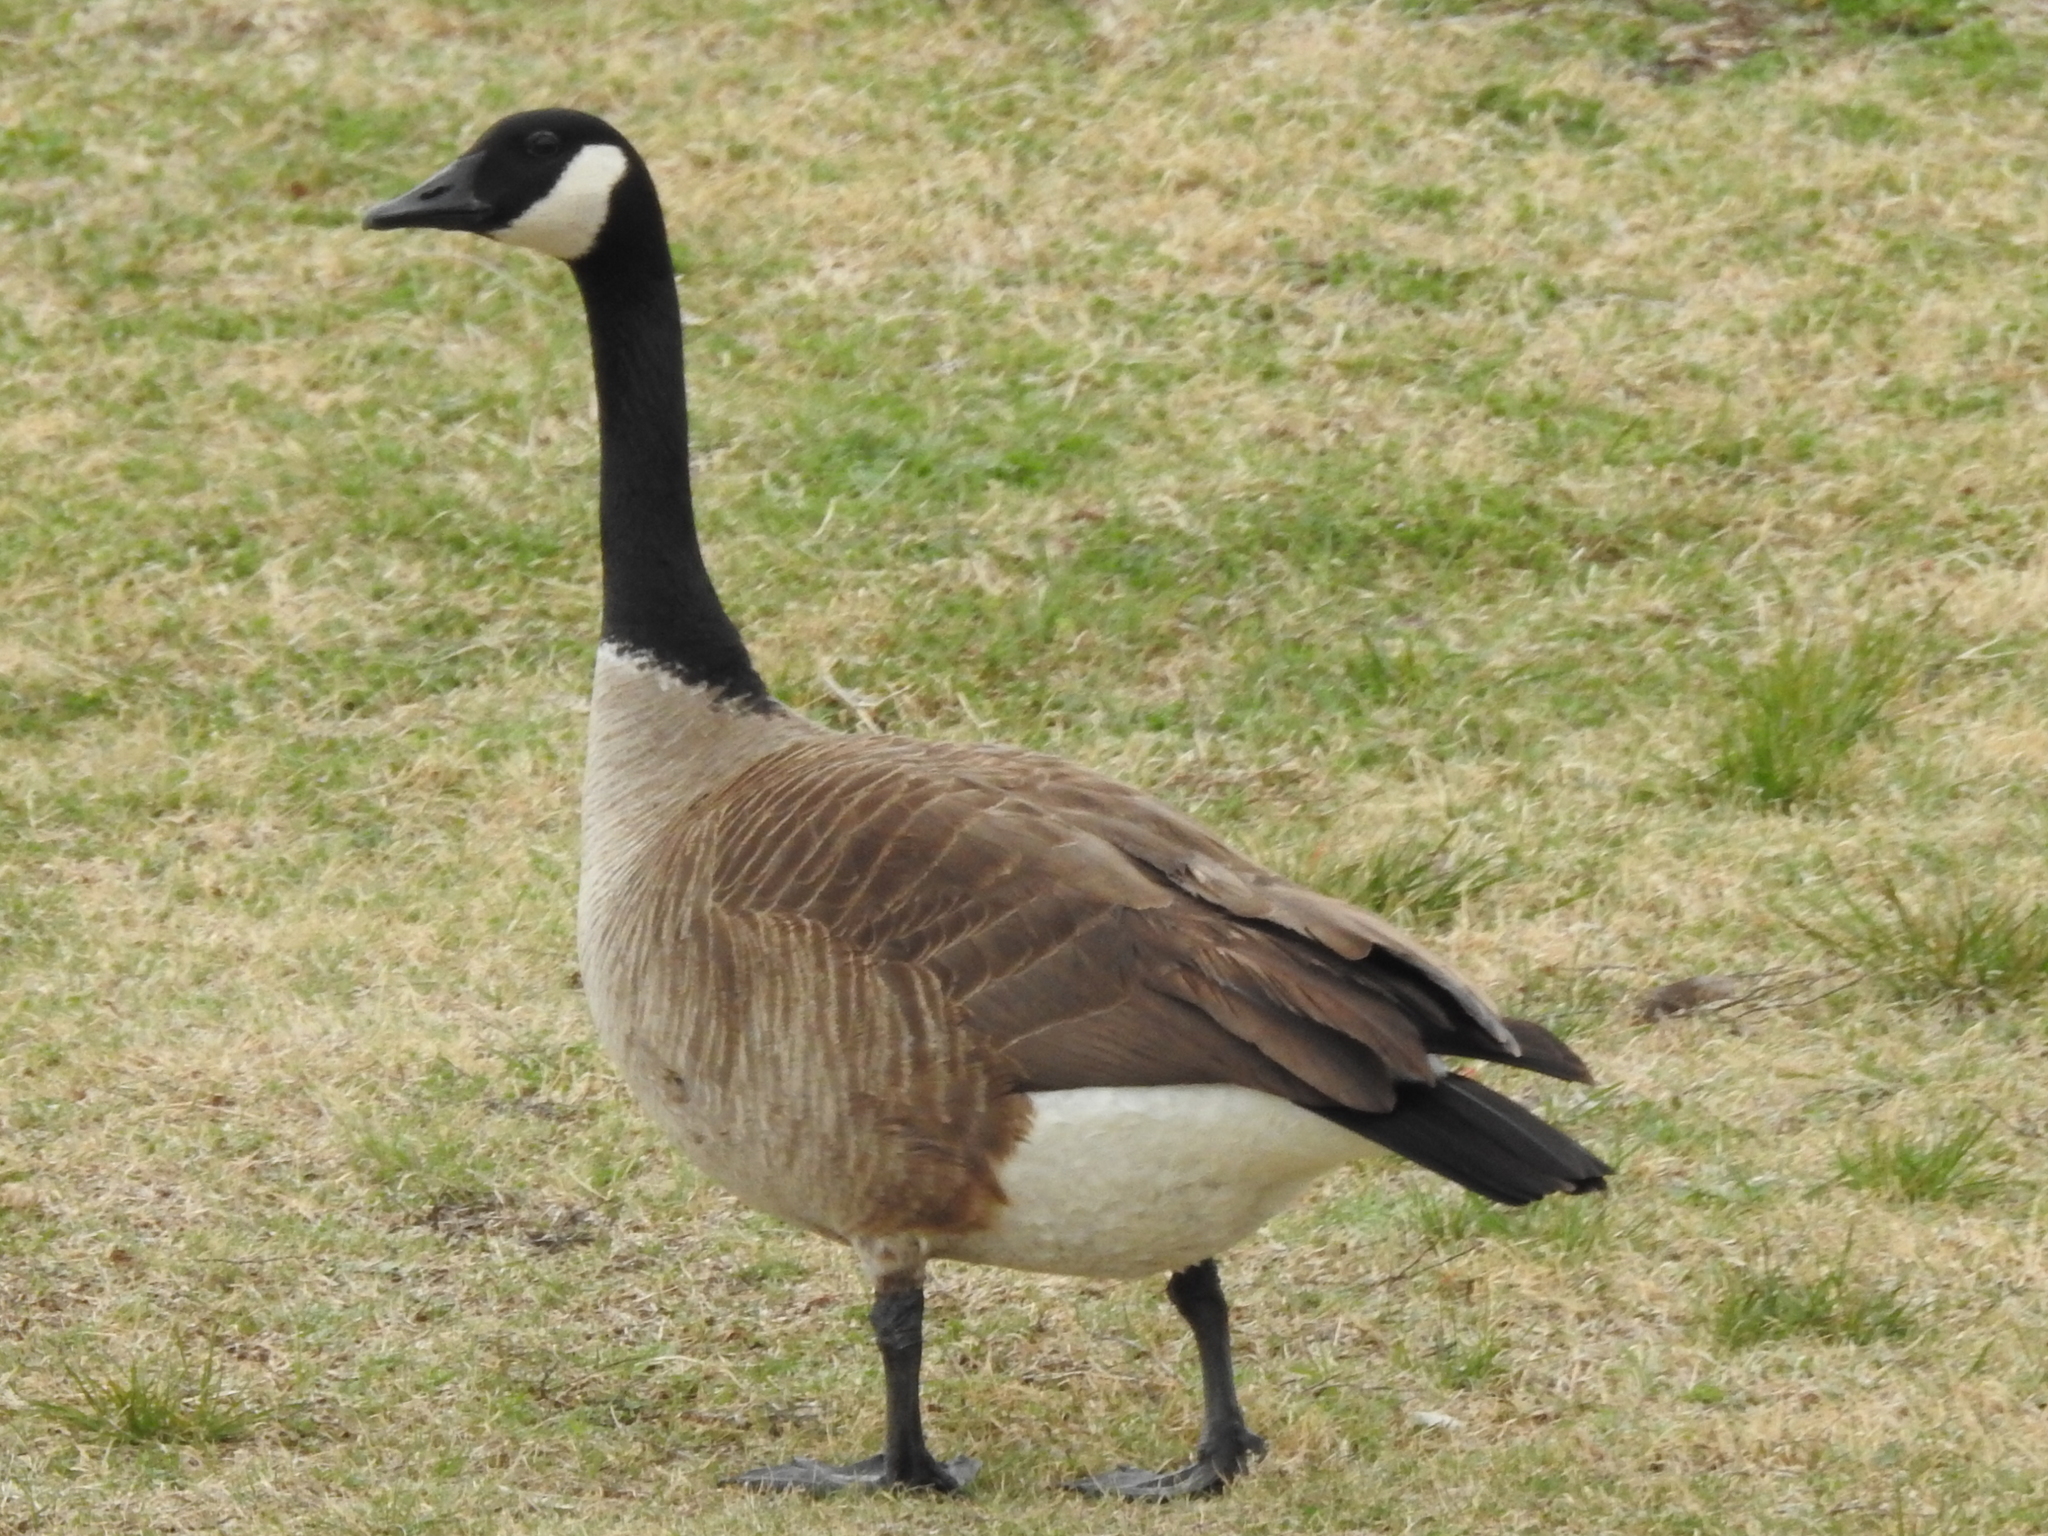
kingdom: Animalia
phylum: Chordata
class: Aves
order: Anseriformes
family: Anatidae
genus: Branta
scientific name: Branta canadensis
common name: Canada goose
